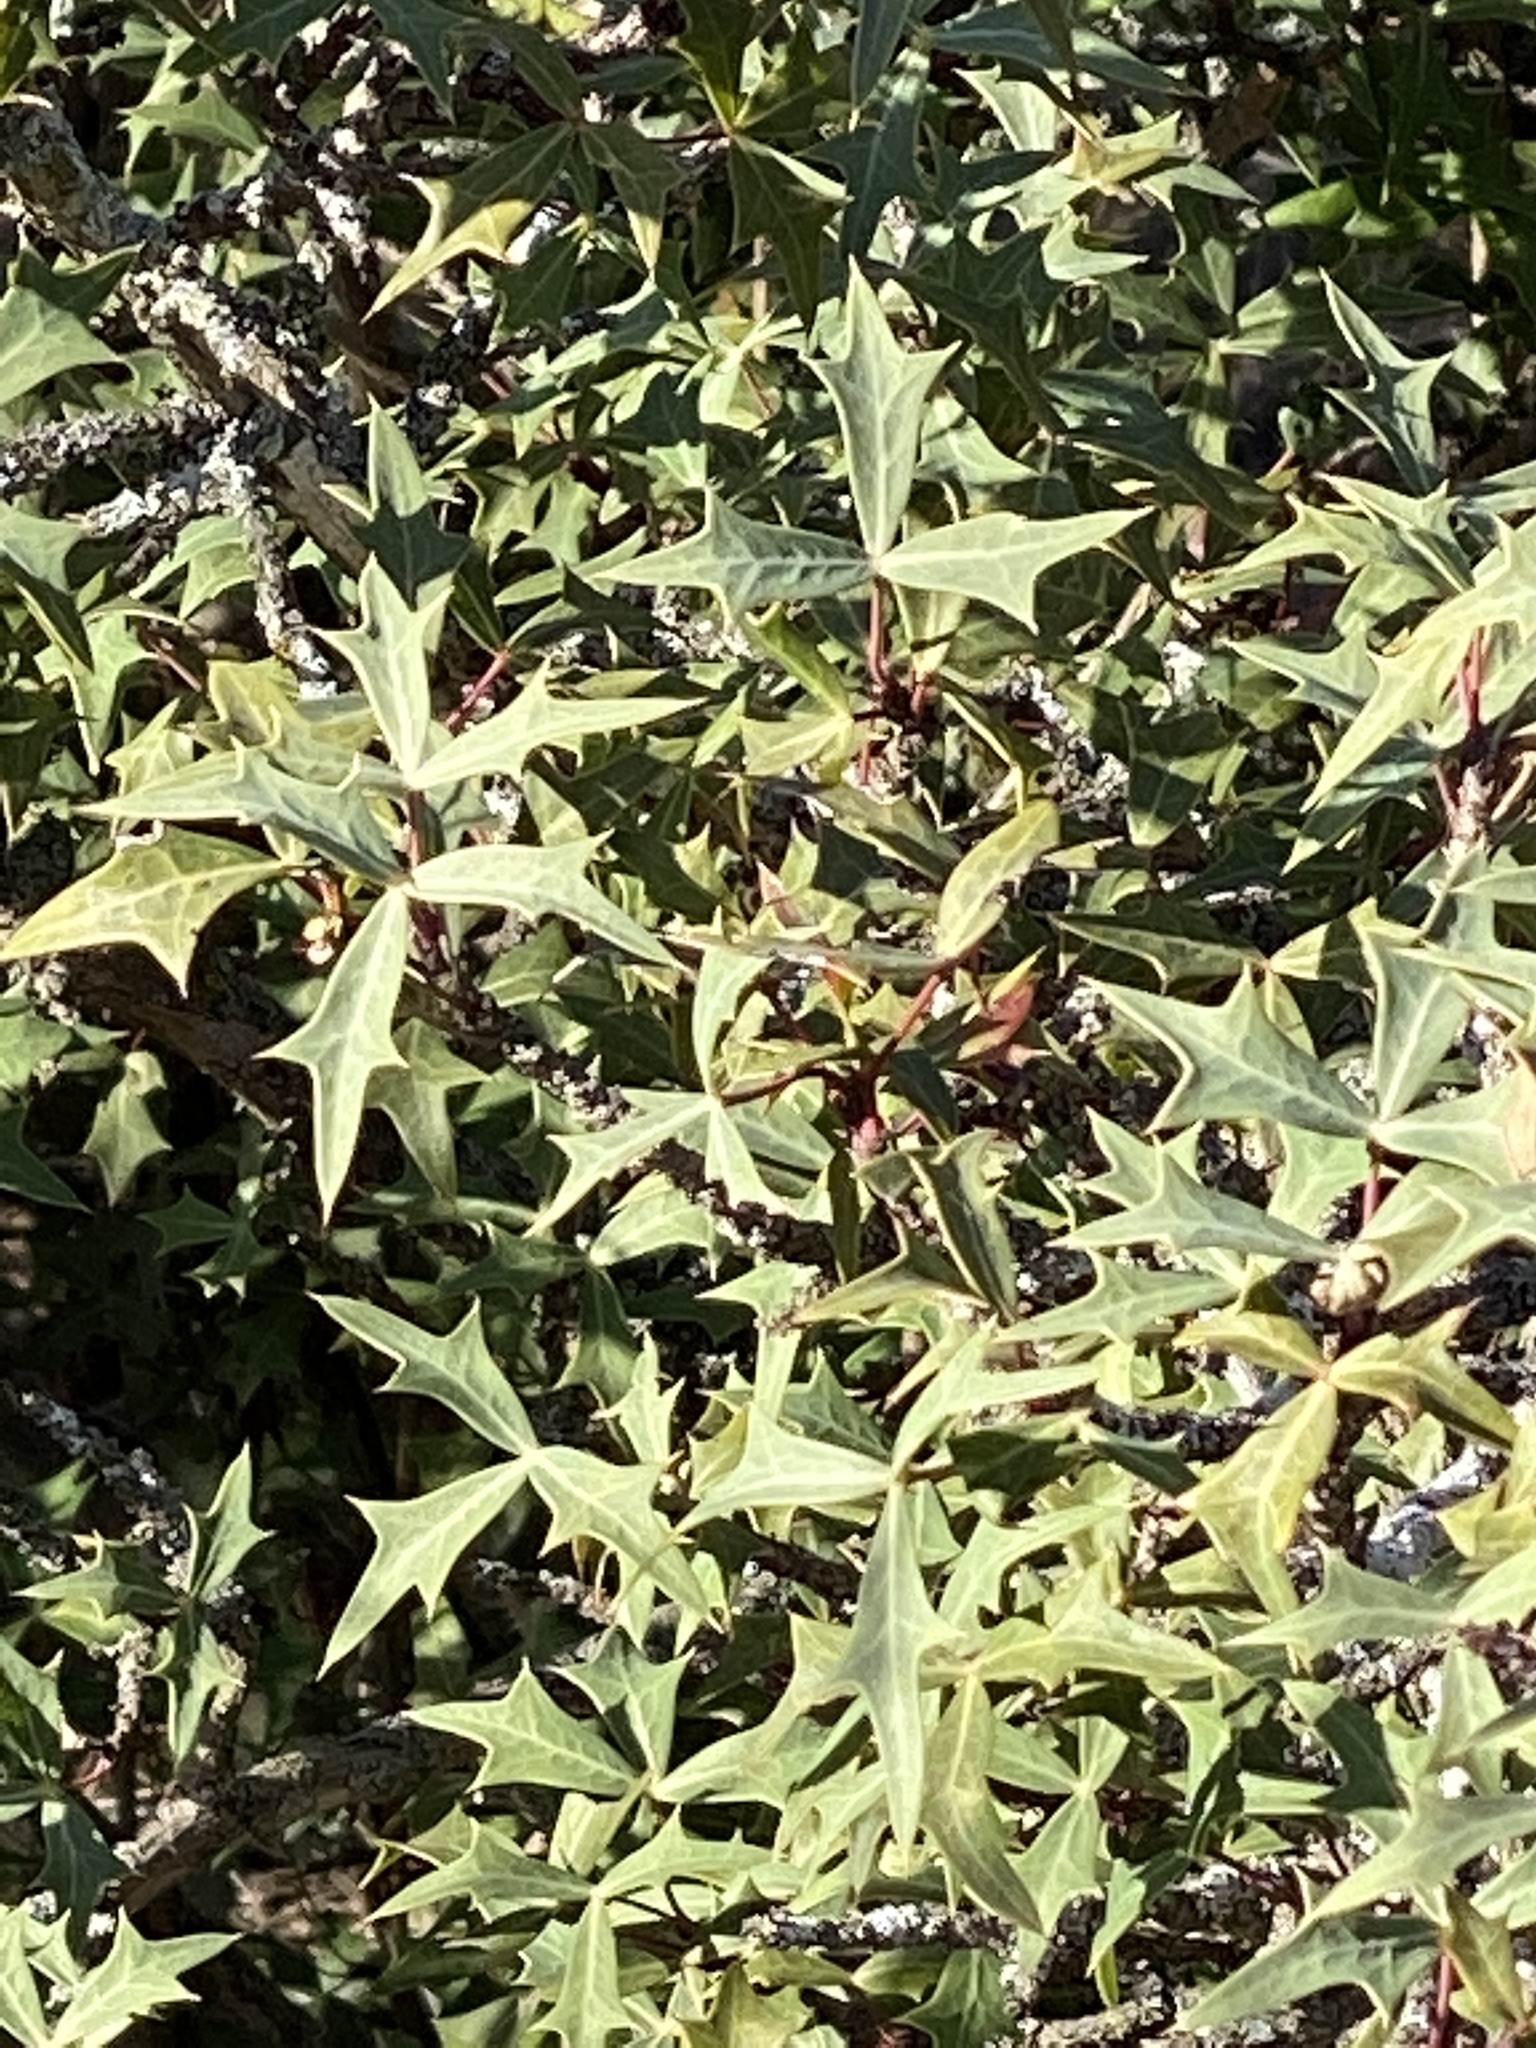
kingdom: Plantae
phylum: Tracheophyta
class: Magnoliopsida
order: Ranunculales
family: Berberidaceae
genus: Alloberberis
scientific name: Alloberberis trifoliolata
